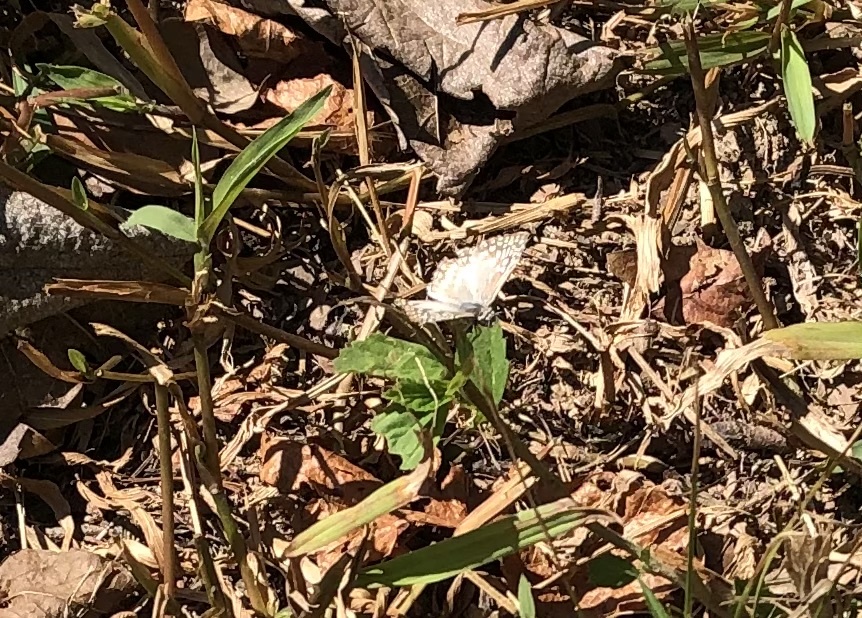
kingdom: Animalia
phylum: Arthropoda
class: Insecta
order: Lepidoptera
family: Hesperiidae
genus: Pyrgus
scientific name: Pyrgus oileus
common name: Tropical checkered-skipper
